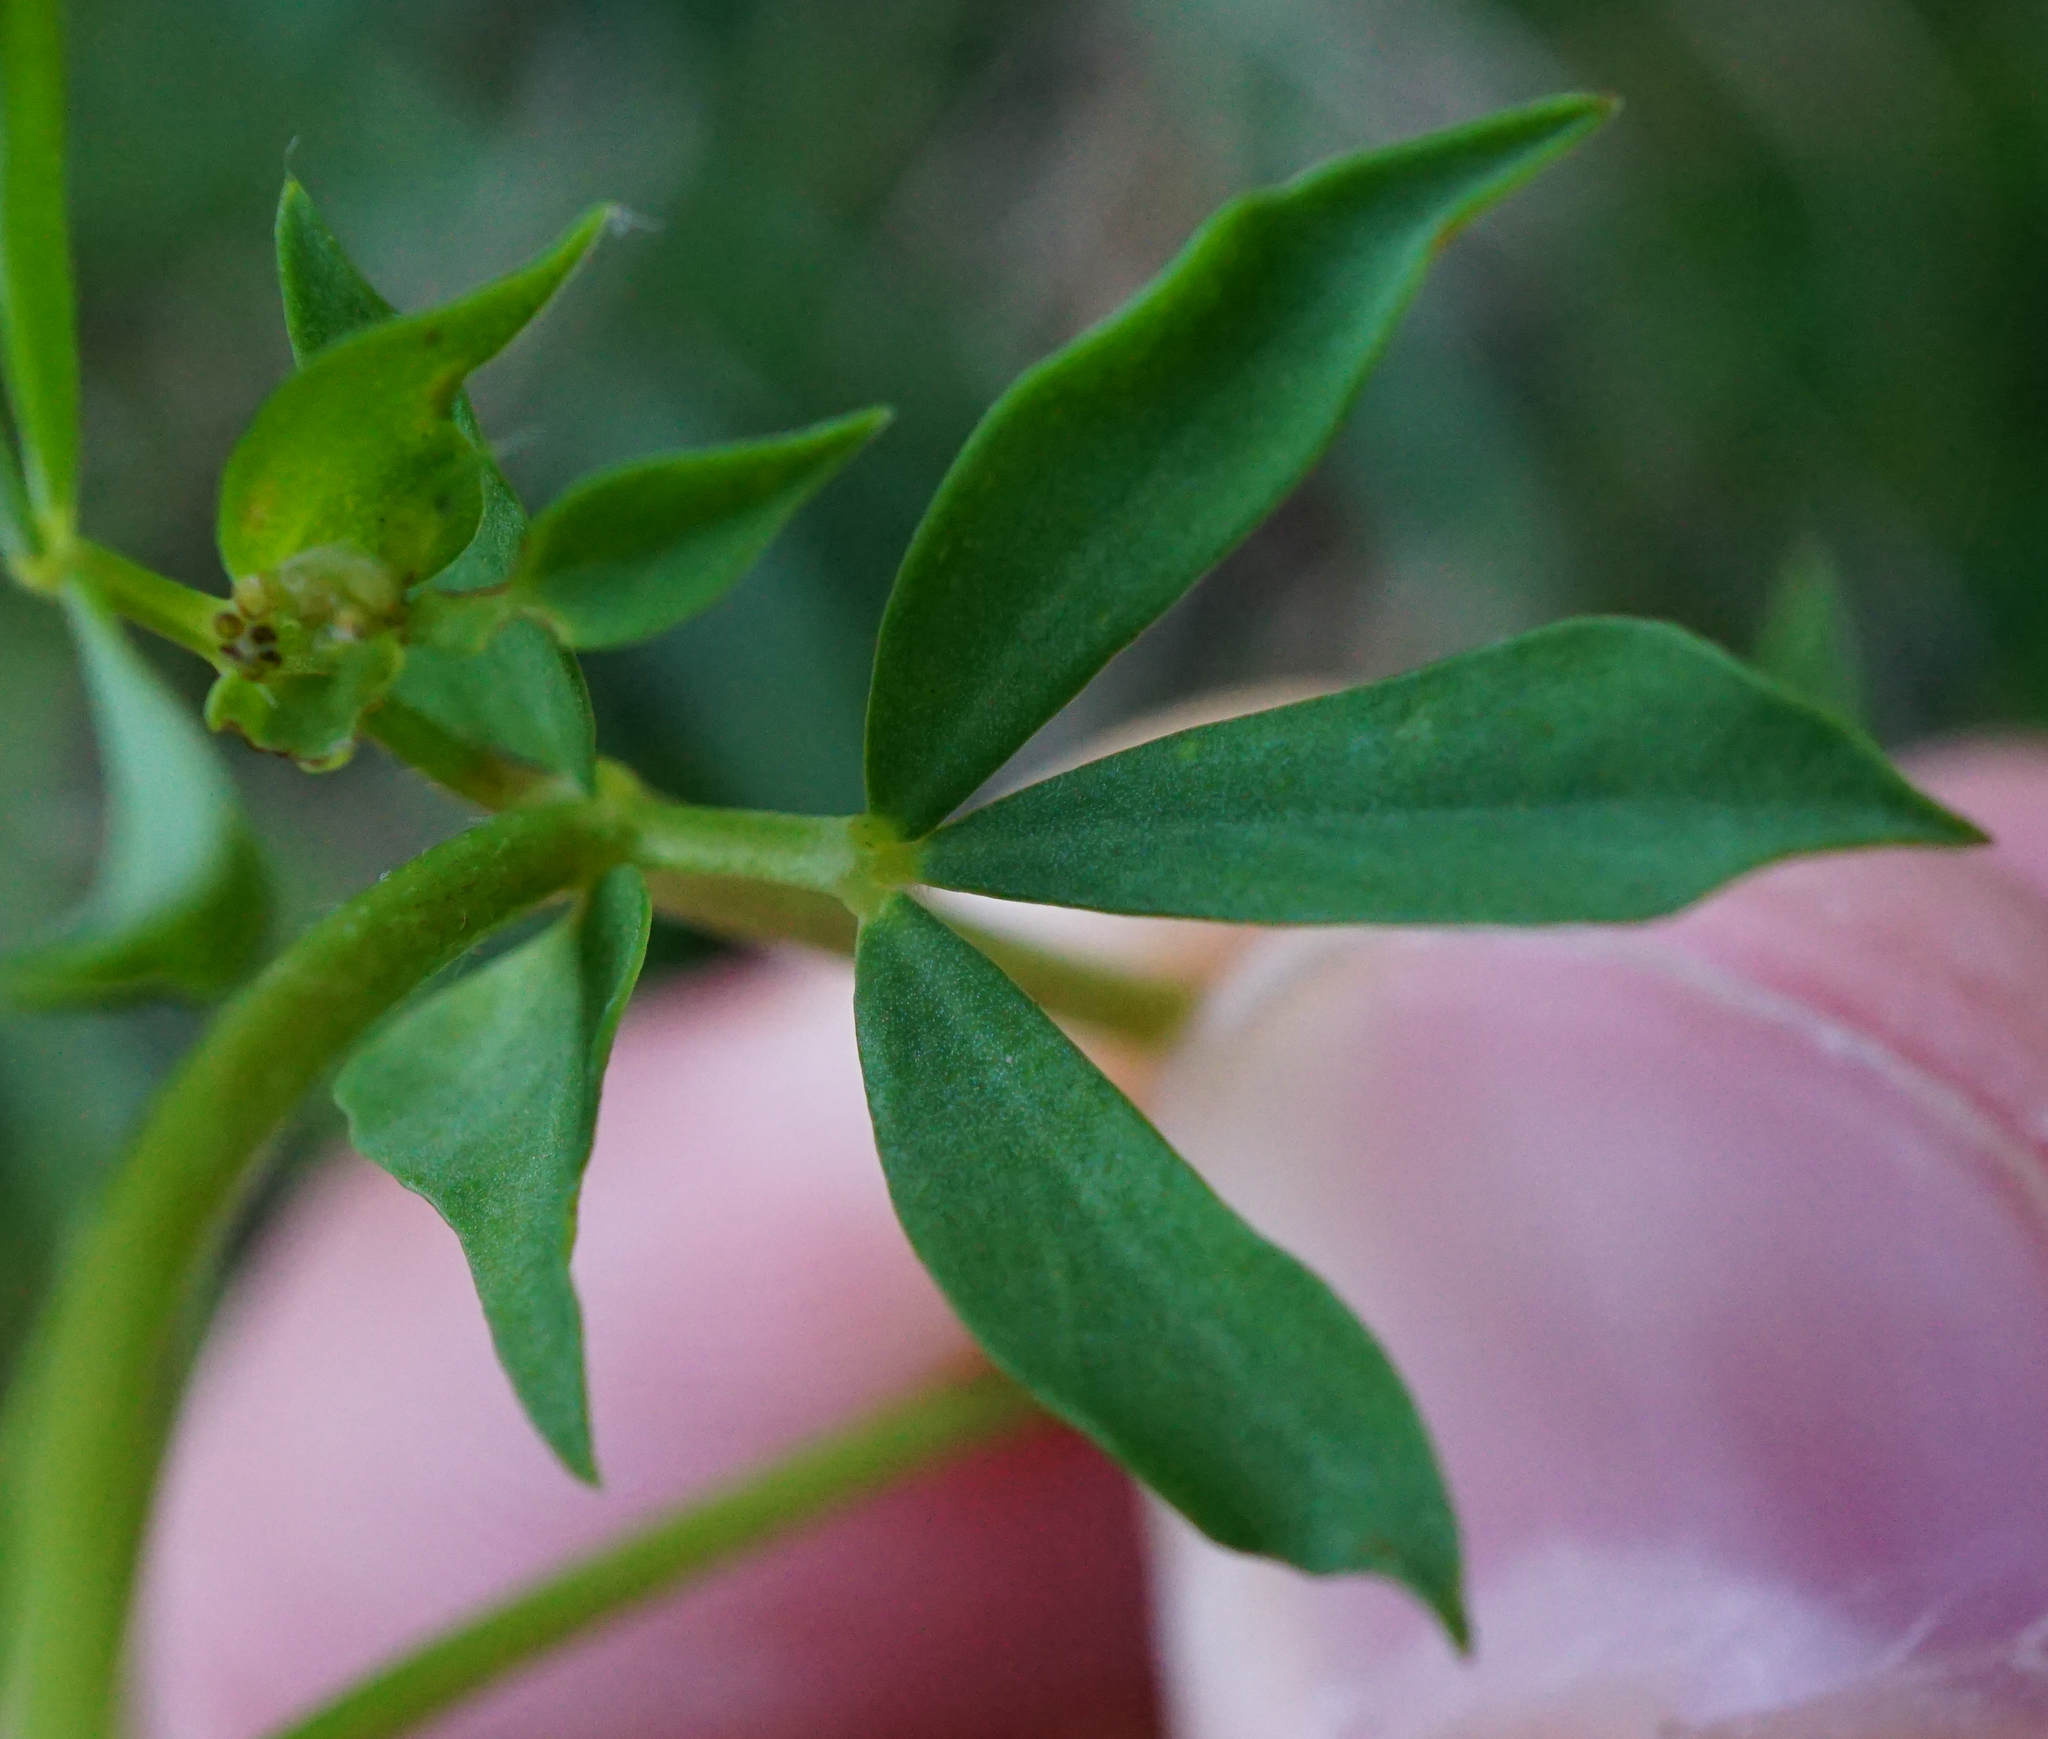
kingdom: Plantae
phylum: Tracheophyta
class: Magnoliopsida
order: Fabales
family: Fabaceae
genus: Lotus
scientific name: Lotus corniculatus
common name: Common bird's-foot-trefoil
